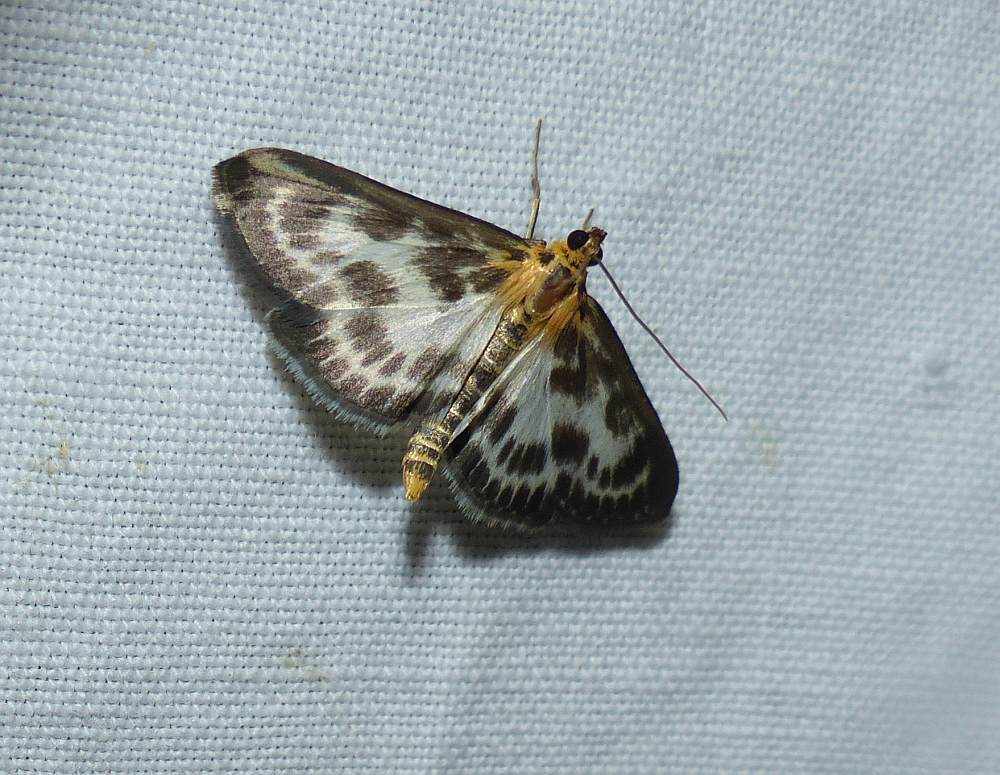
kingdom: Animalia
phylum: Arthropoda
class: Insecta
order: Lepidoptera
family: Crambidae
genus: Anania
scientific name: Anania hortulata
